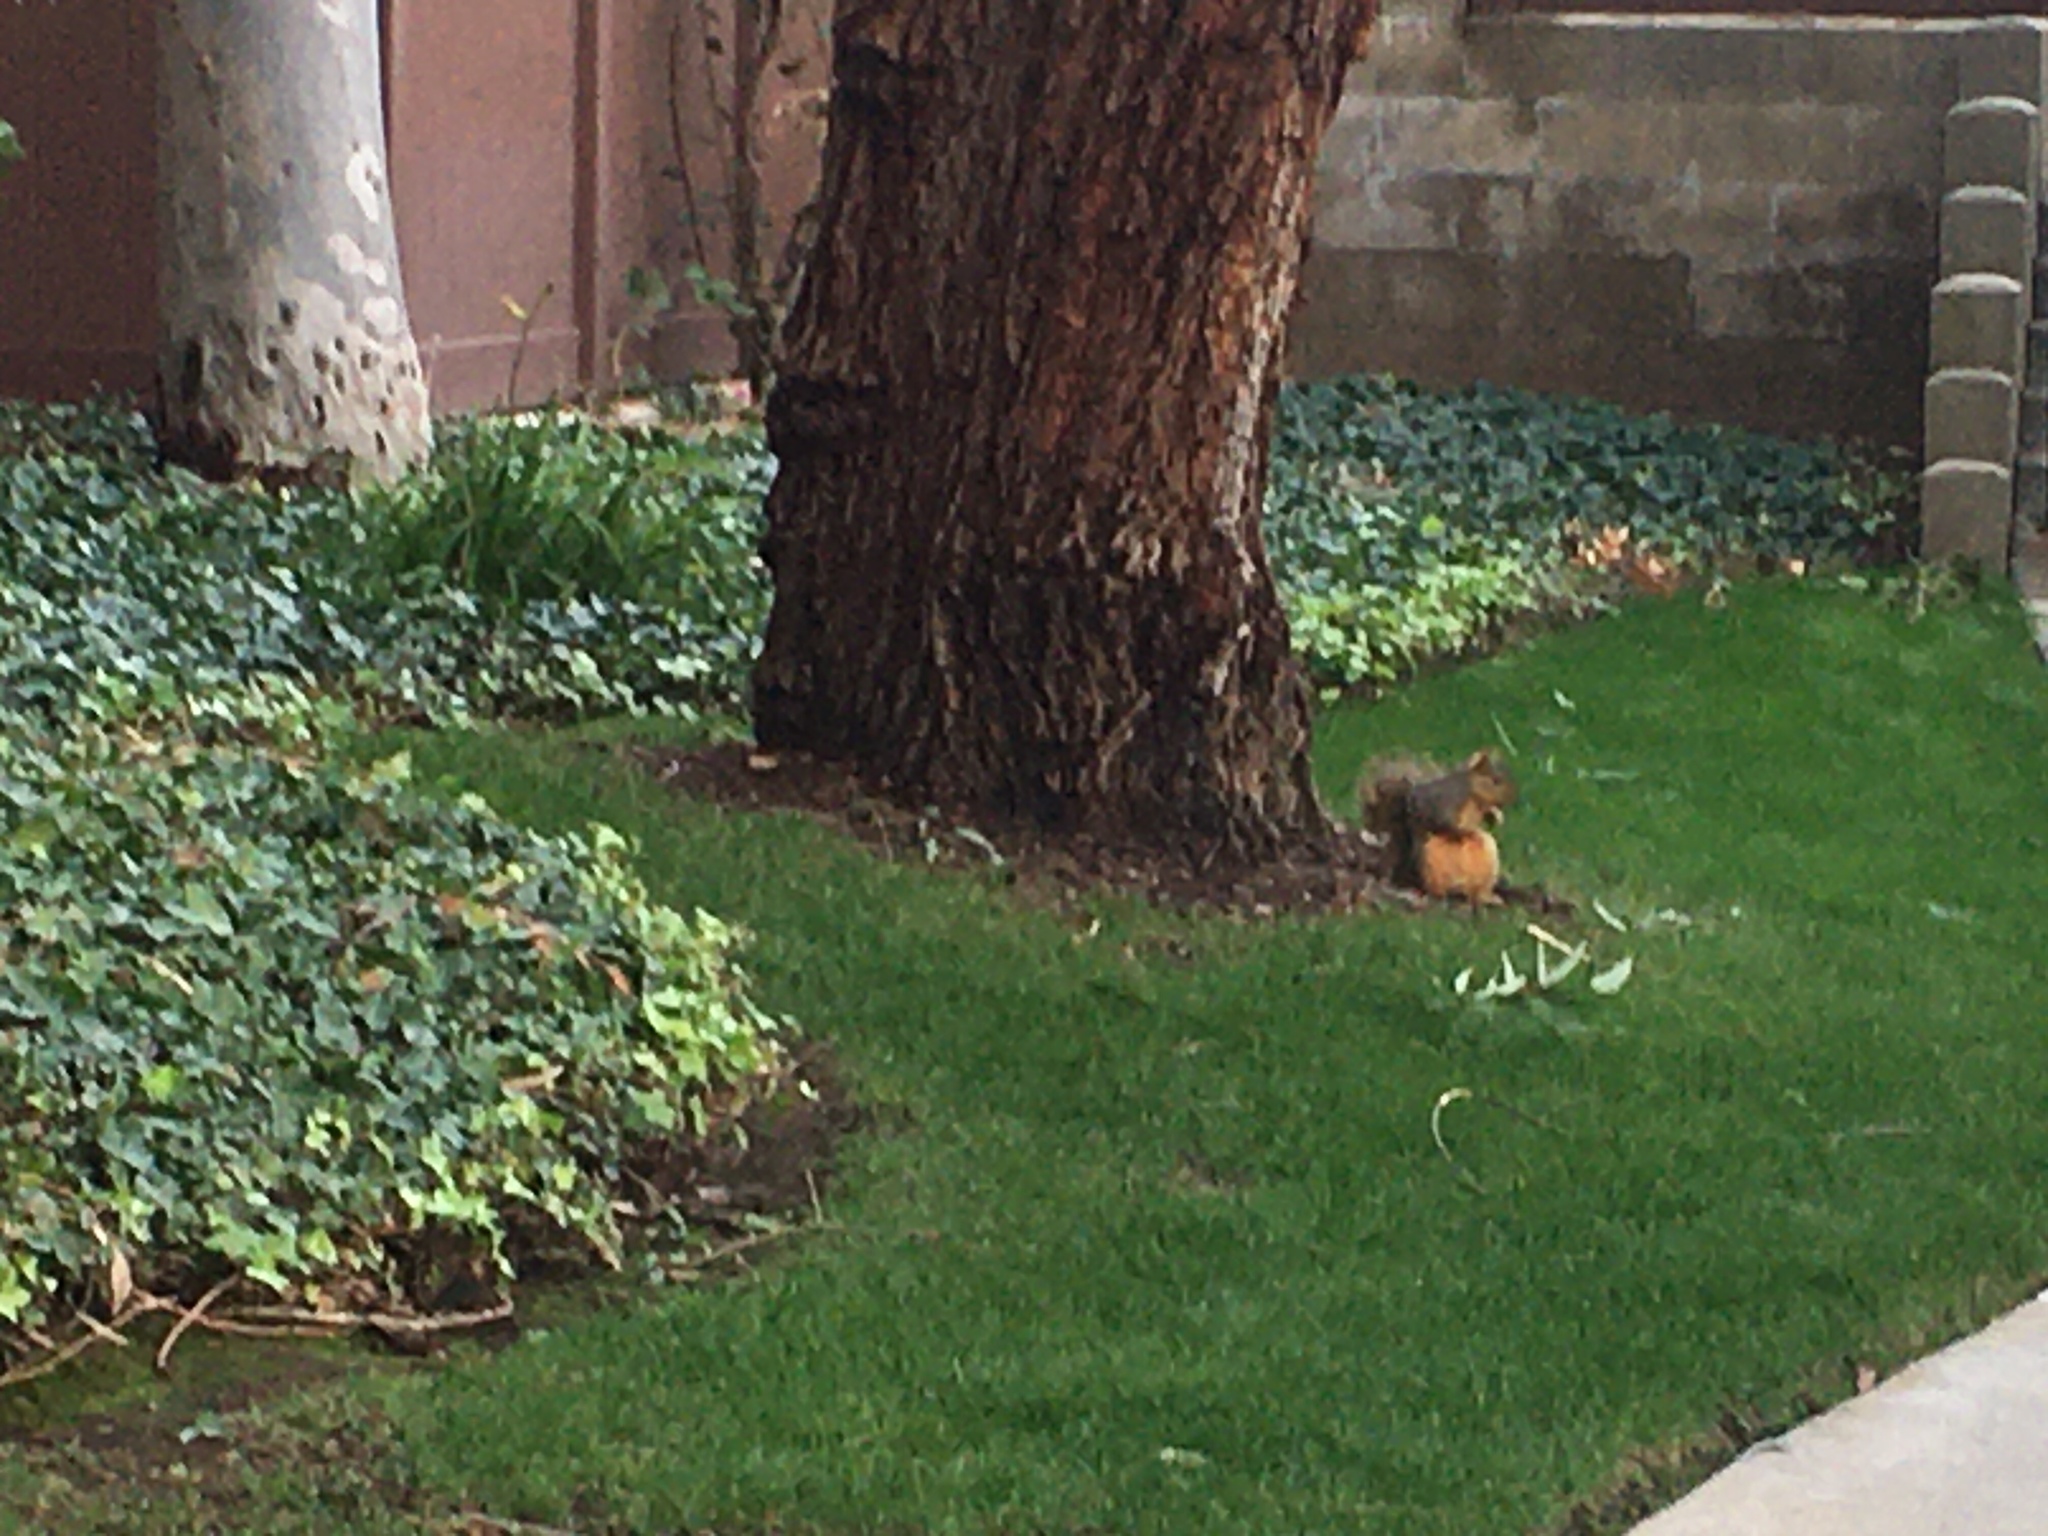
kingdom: Animalia
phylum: Chordata
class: Mammalia
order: Rodentia
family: Sciuridae
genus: Sciurus
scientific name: Sciurus niger
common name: Fox squirrel
